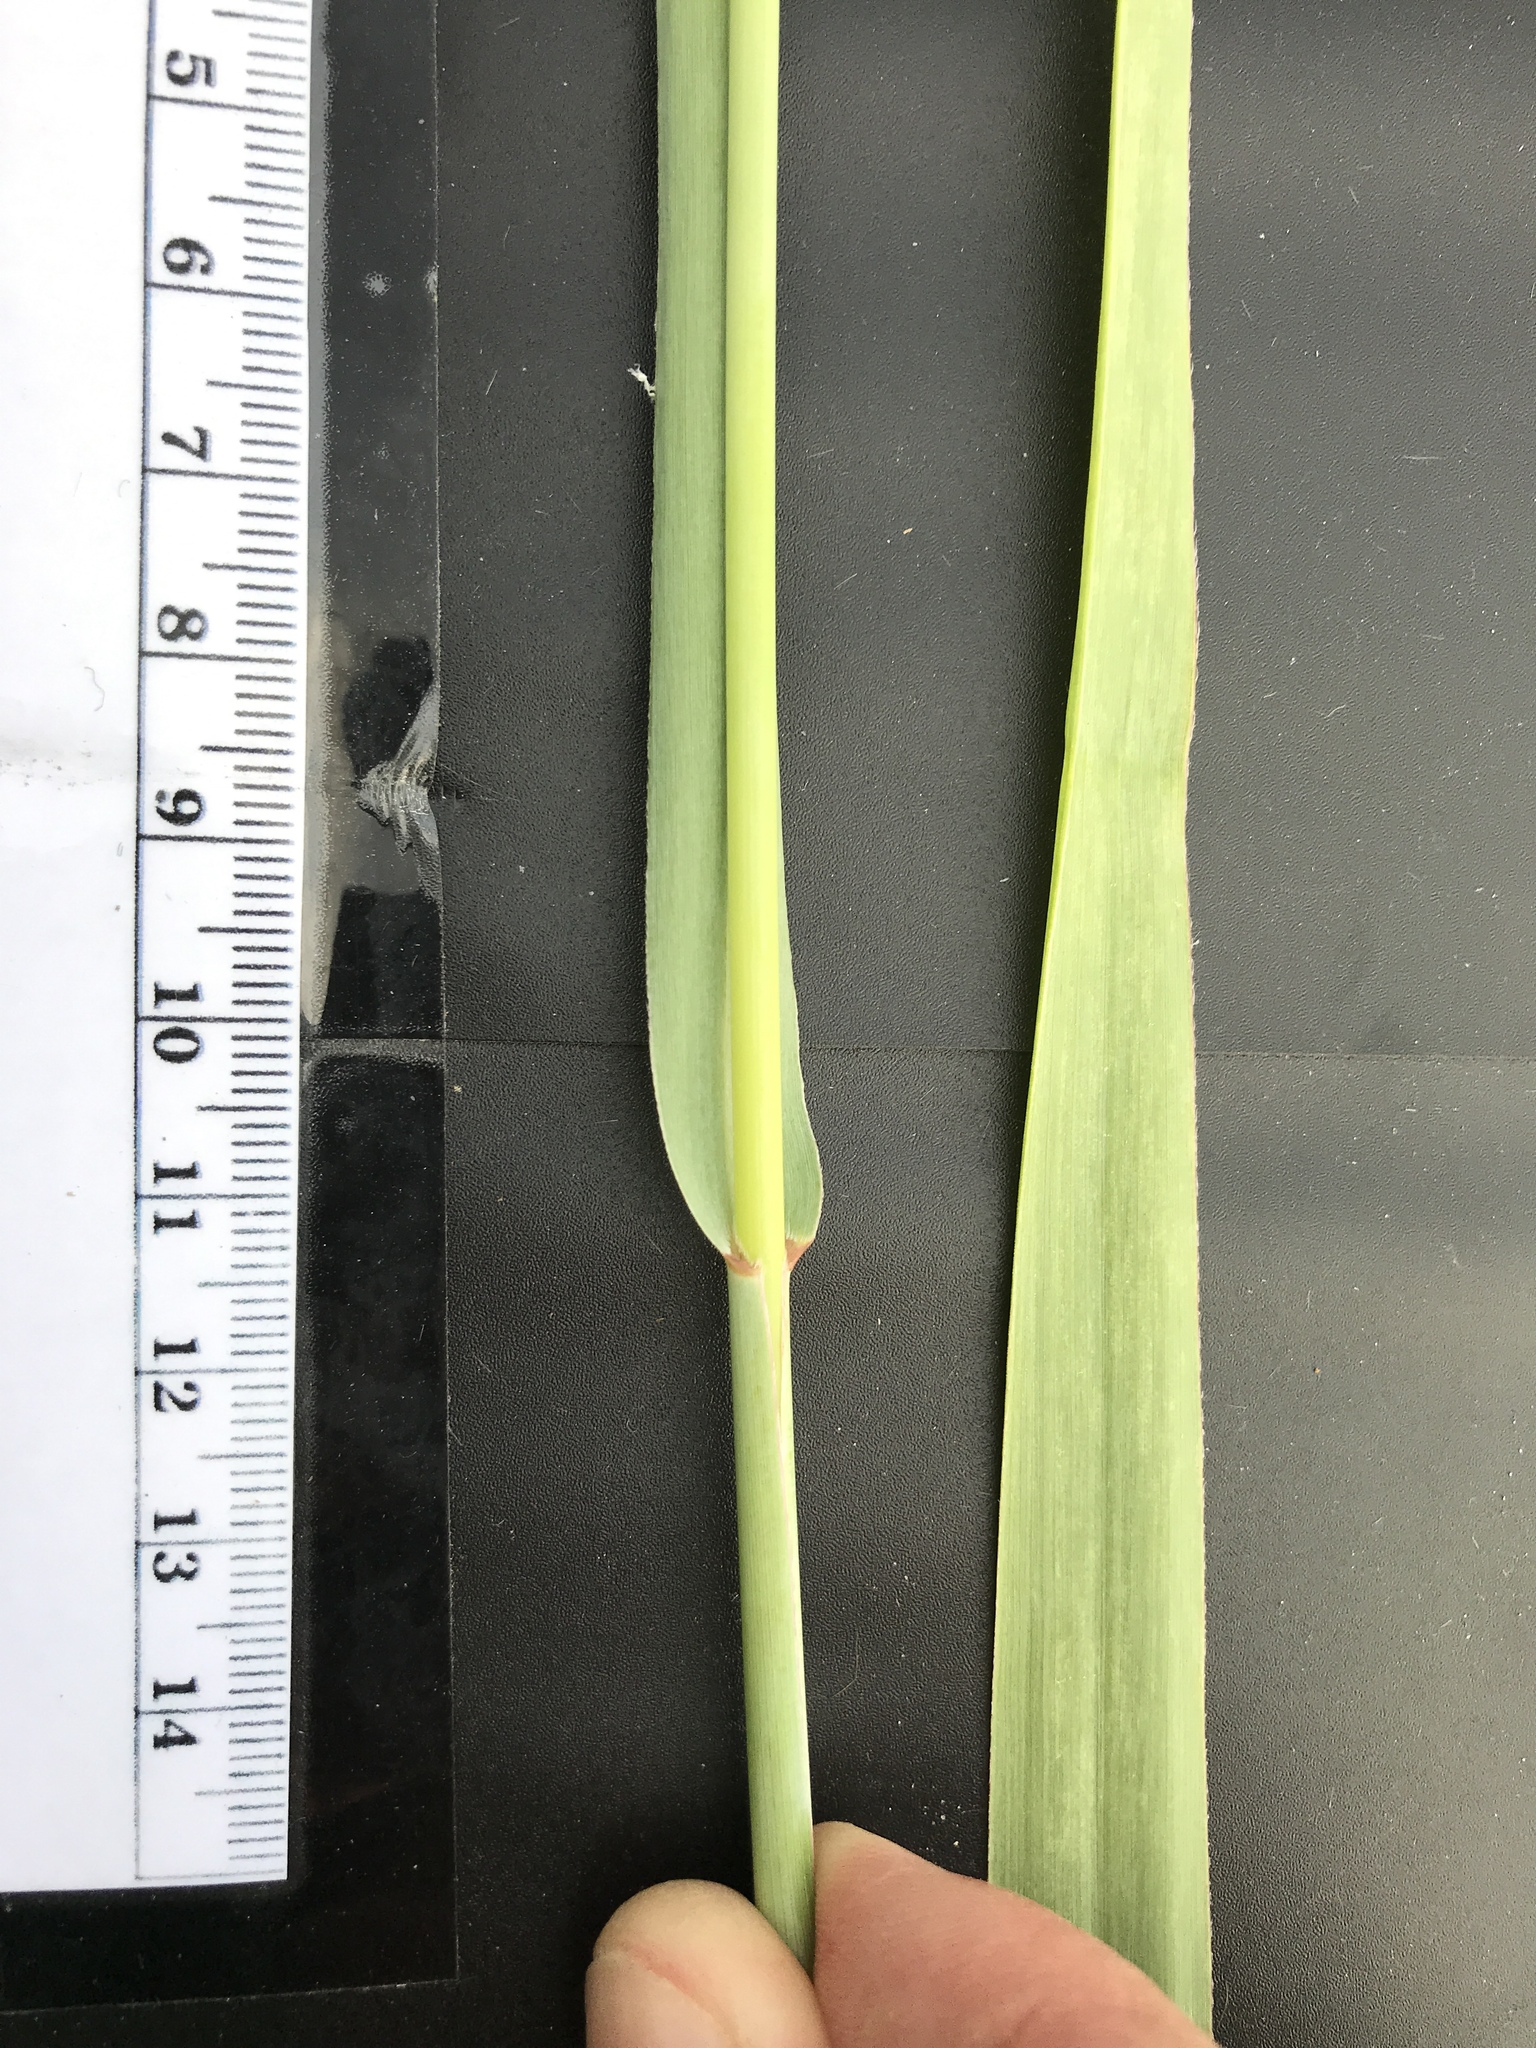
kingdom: Plantae
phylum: Tracheophyta
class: Liliopsida
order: Poales
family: Poaceae
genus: Panicum
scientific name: Panicum virgatum
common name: Switchgrass
